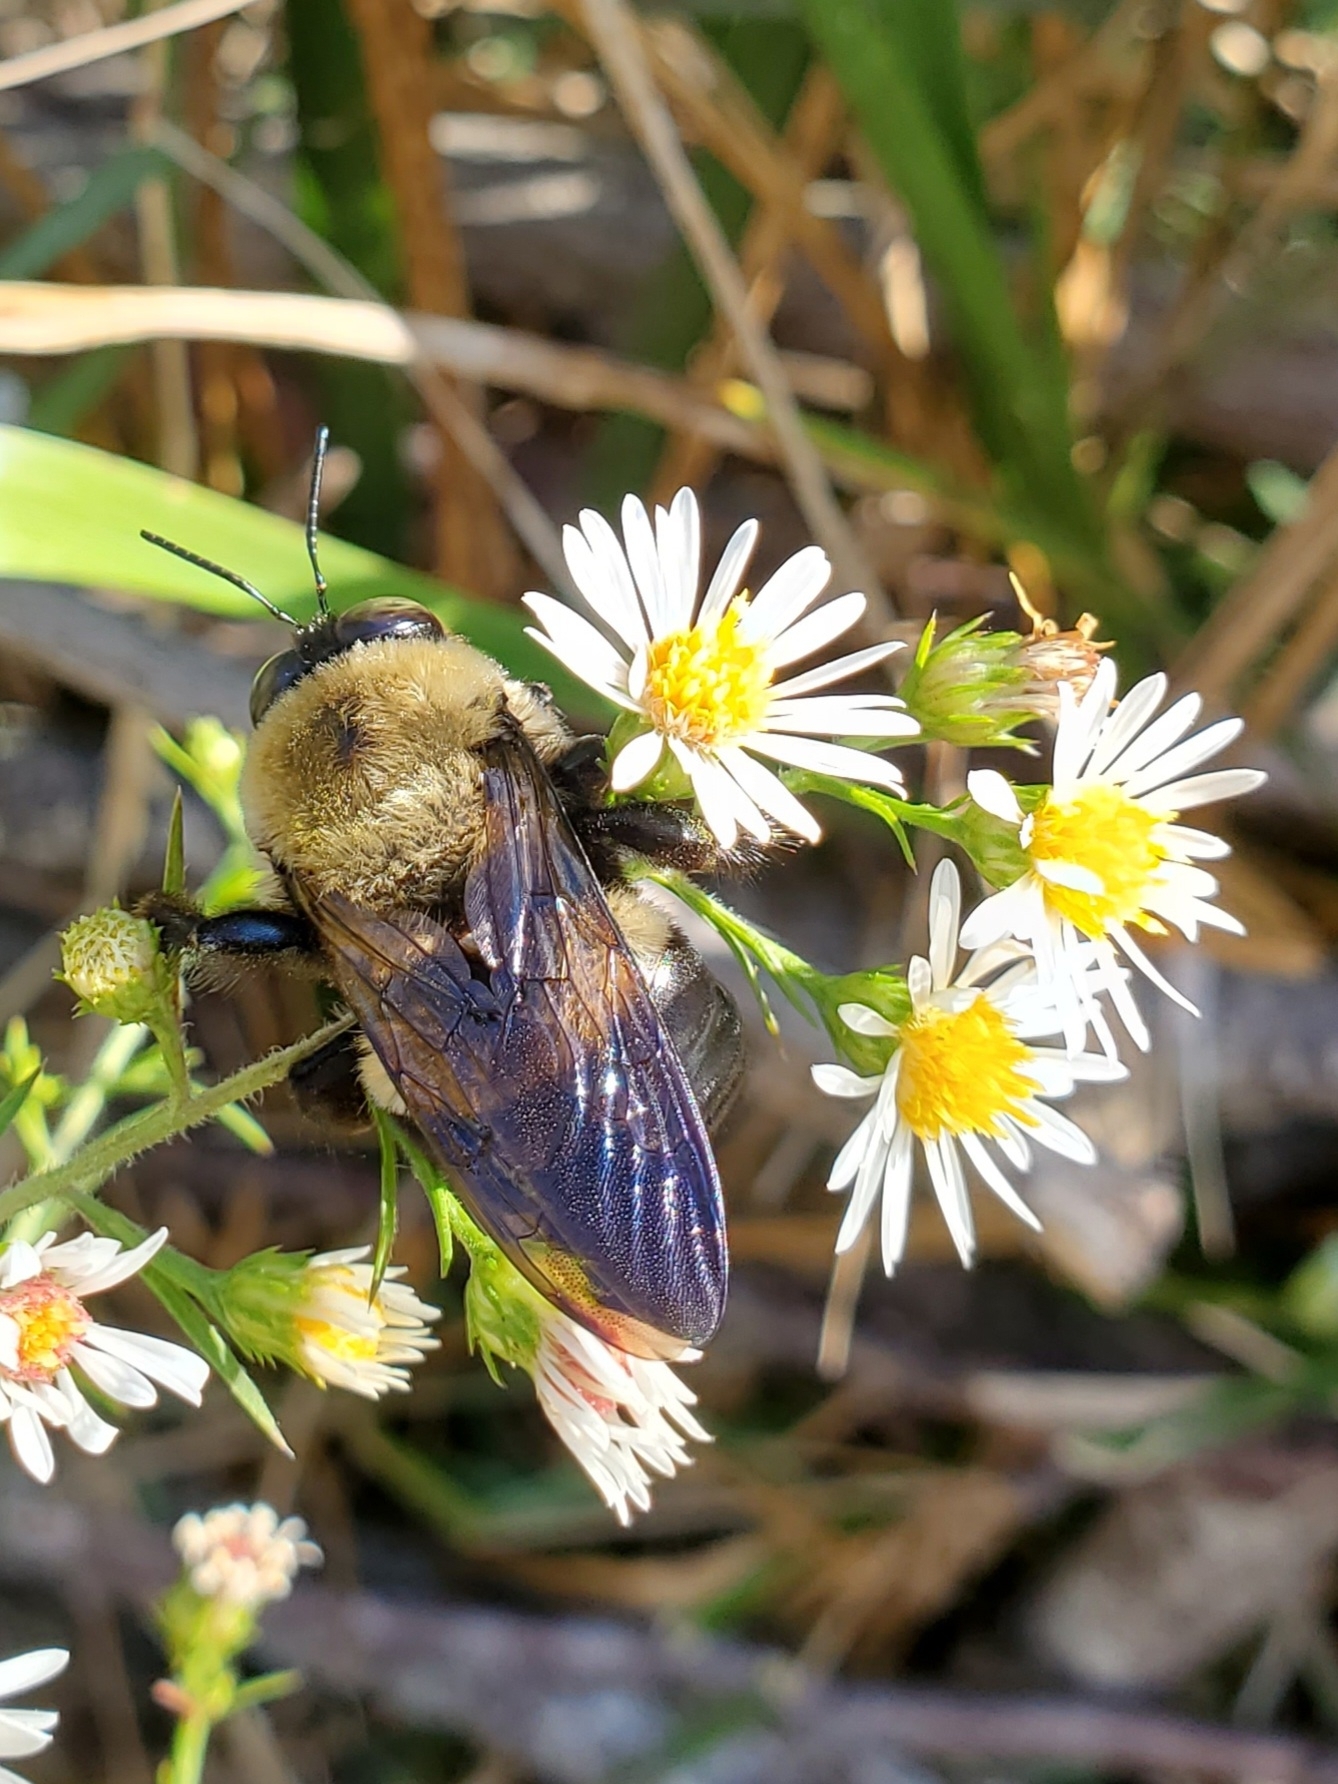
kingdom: Animalia
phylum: Arthropoda
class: Insecta
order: Hymenoptera
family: Apidae
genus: Xylocopa
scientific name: Xylocopa virginica
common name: Carpenter bee
